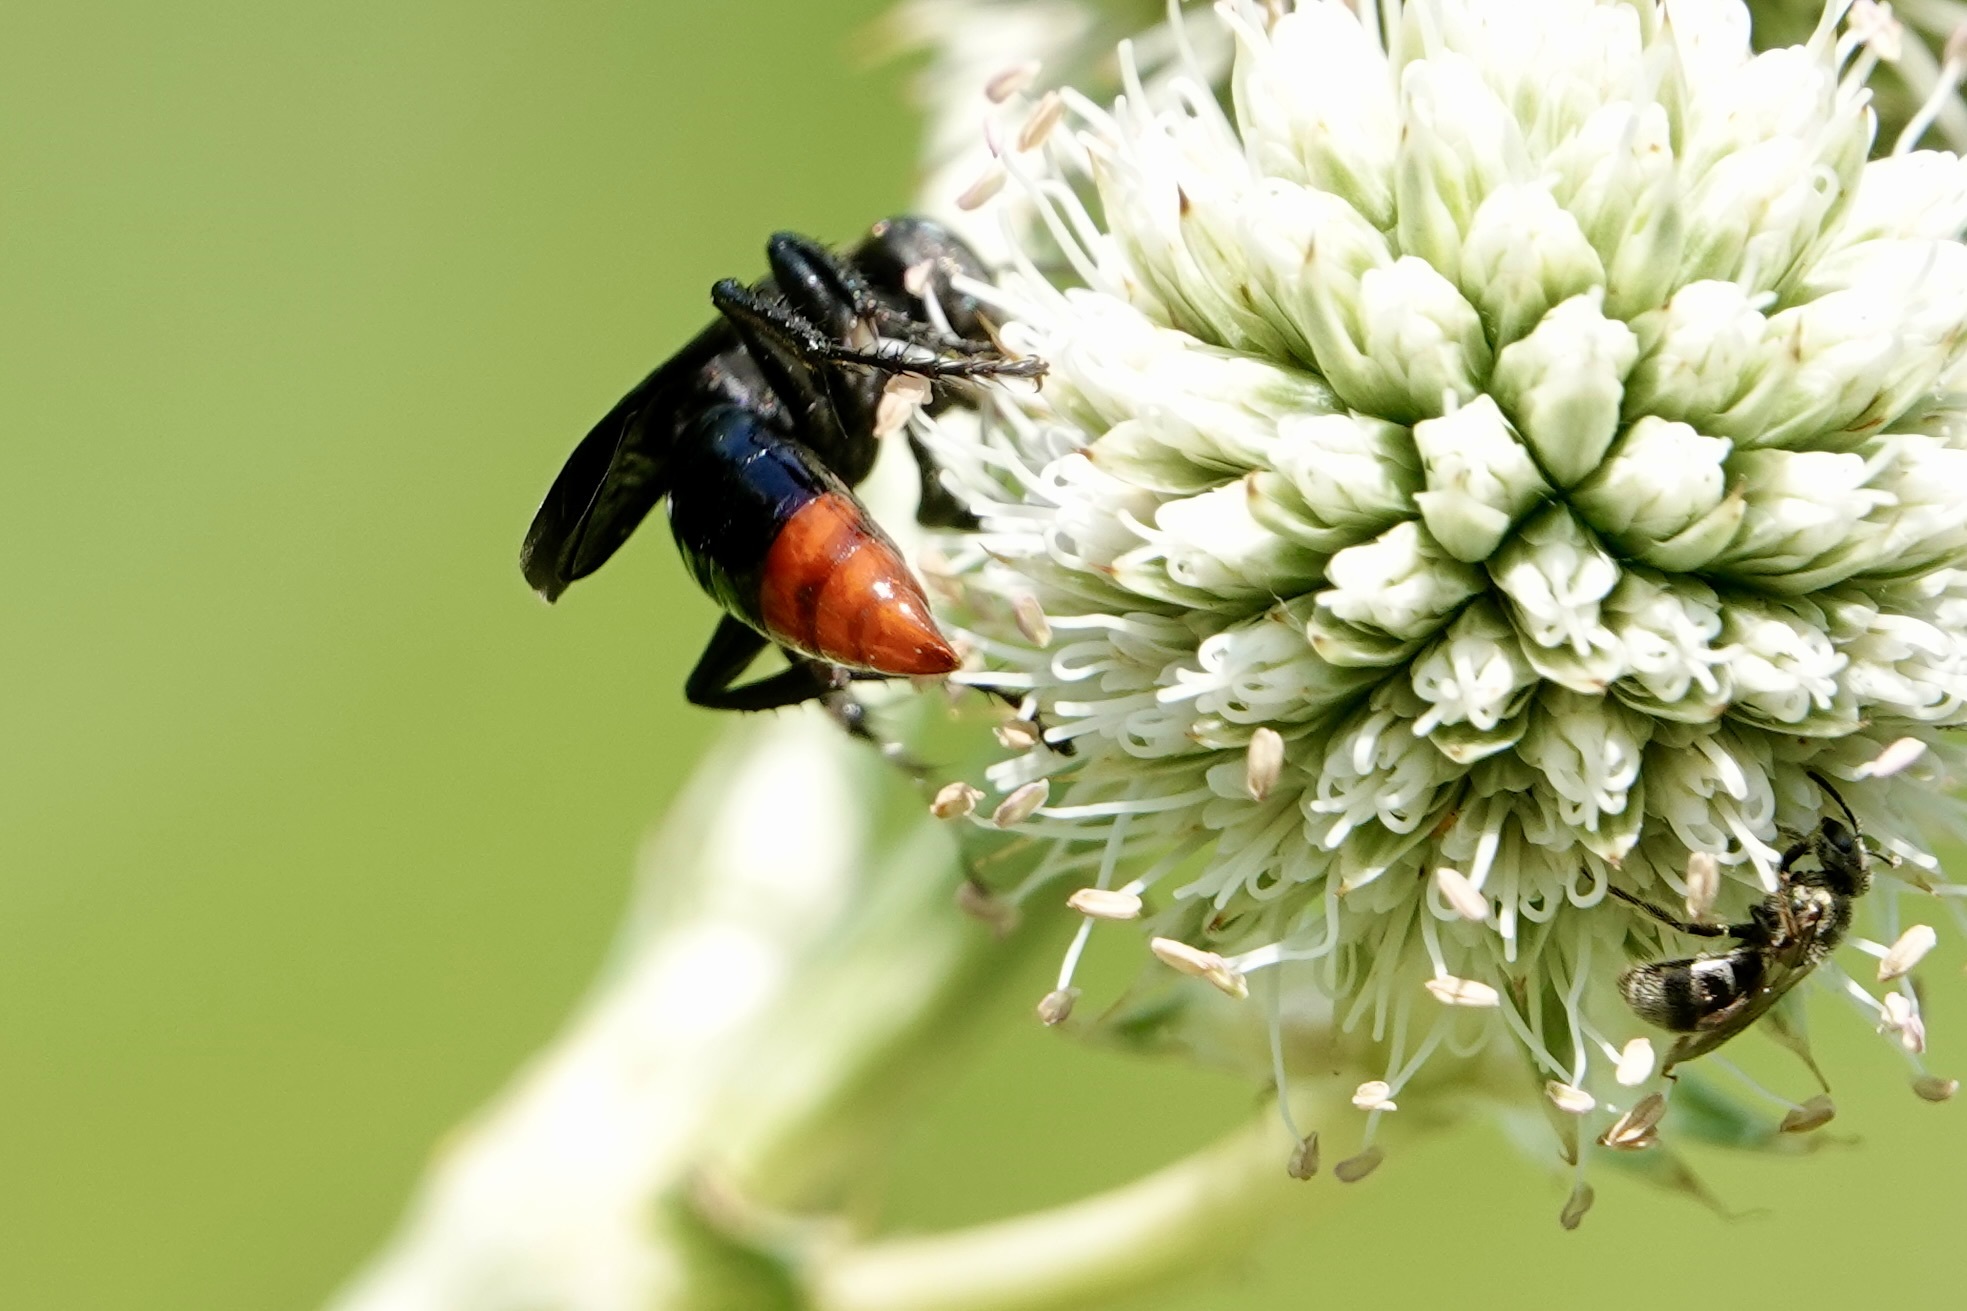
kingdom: Animalia
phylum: Arthropoda
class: Insecta
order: Hymenoptera
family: Crabronidae
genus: Larra
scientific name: Larra analis
